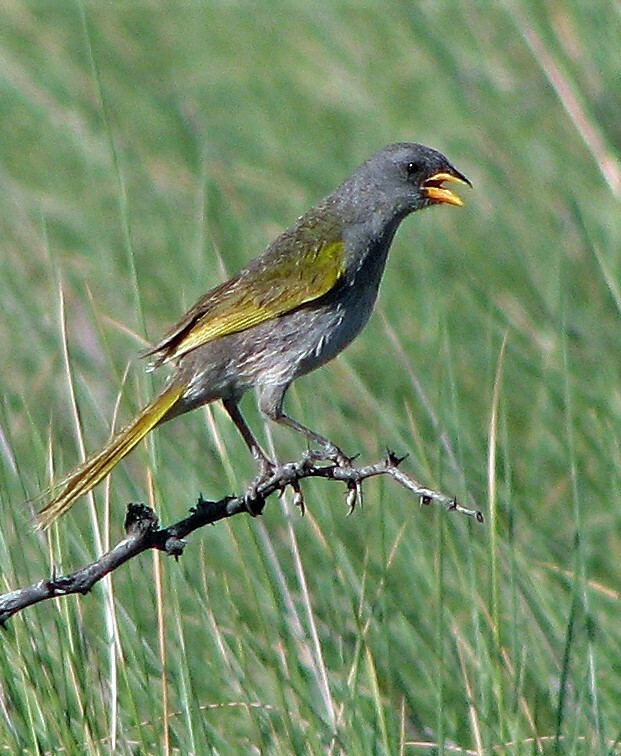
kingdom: Animalia
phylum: Chordata
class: Aves
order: Passeriformes
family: Thraupidae
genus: Embernagra
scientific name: Embernagra platensis
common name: Pampa finch
